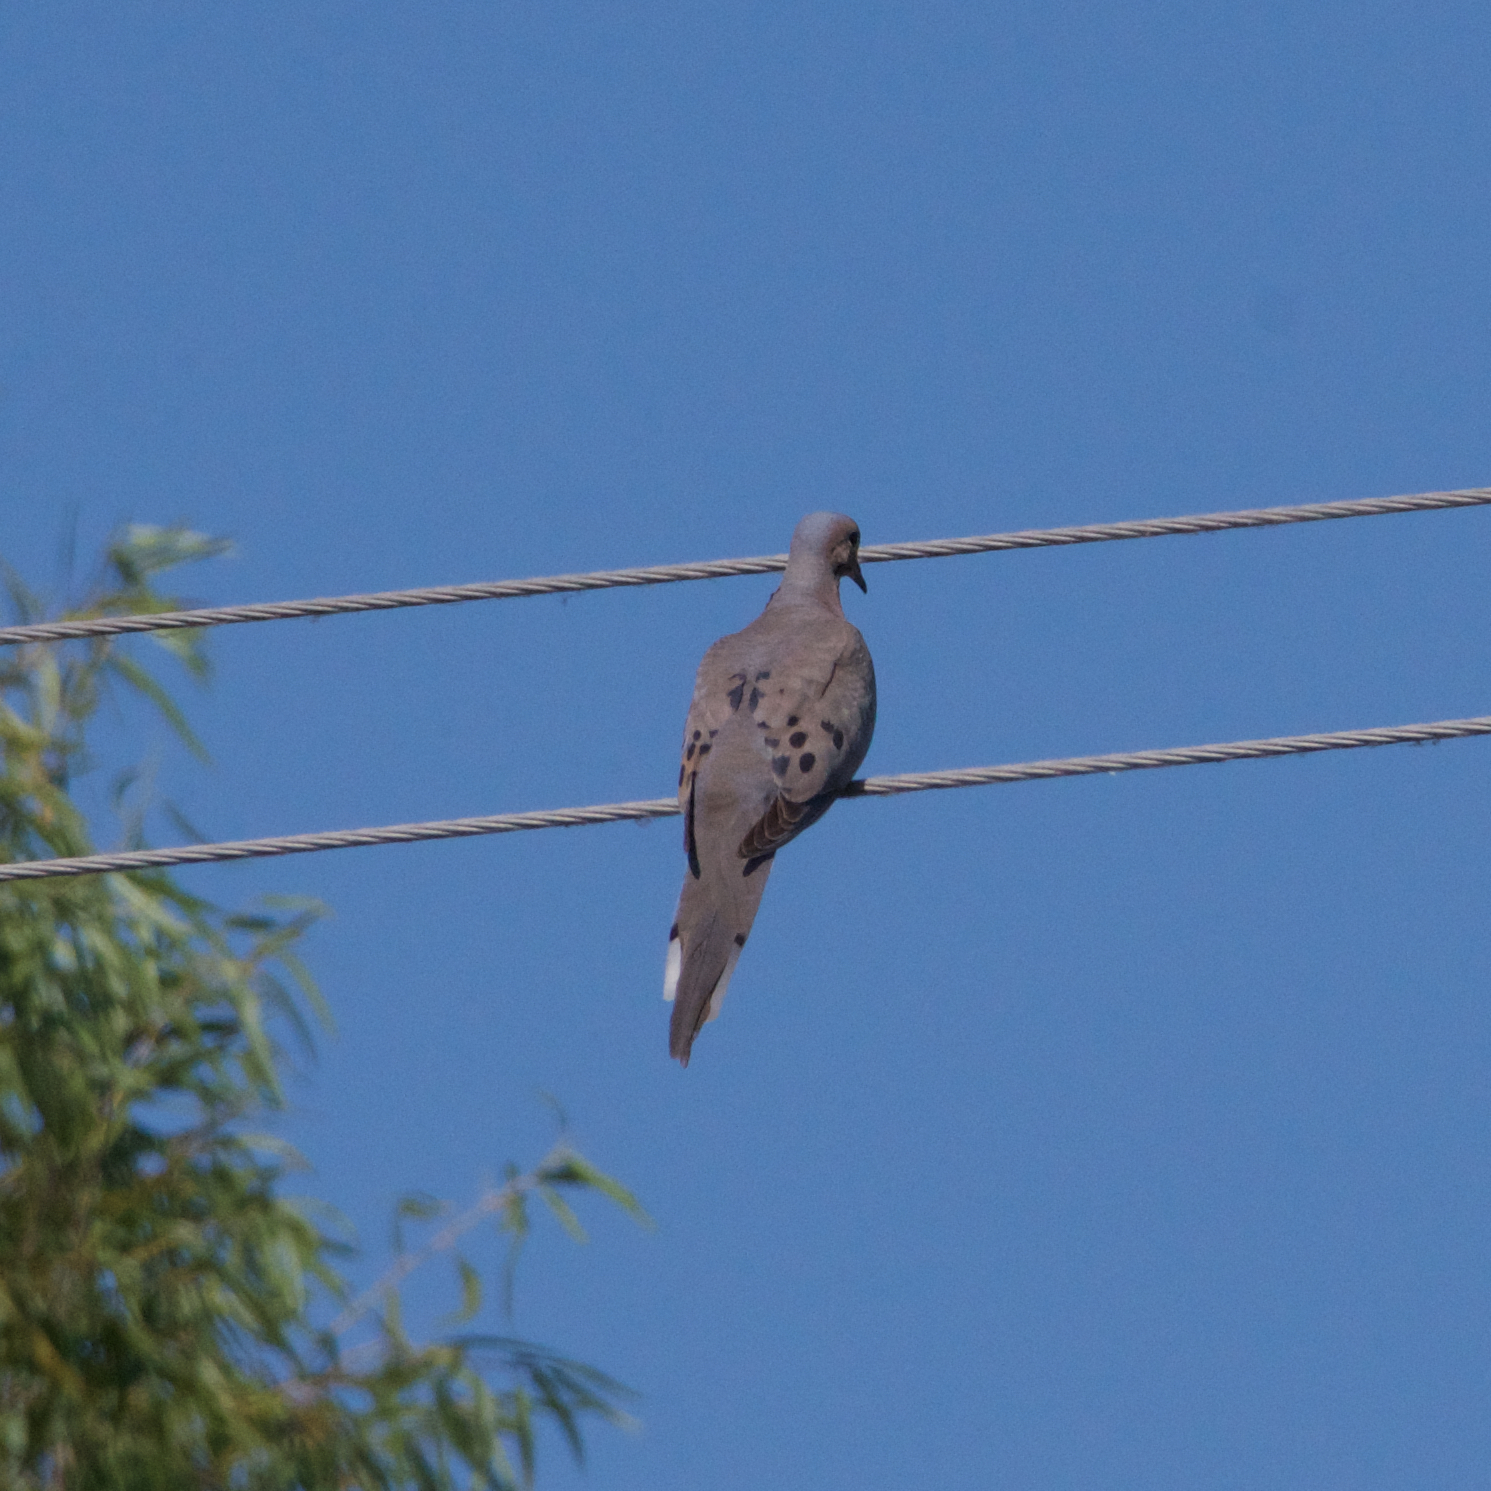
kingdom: Animalia
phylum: Chordata
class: Aves
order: Columbiformes
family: Columbidae
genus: Zenaida
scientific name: Zenaida macroura
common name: Mourning dove
